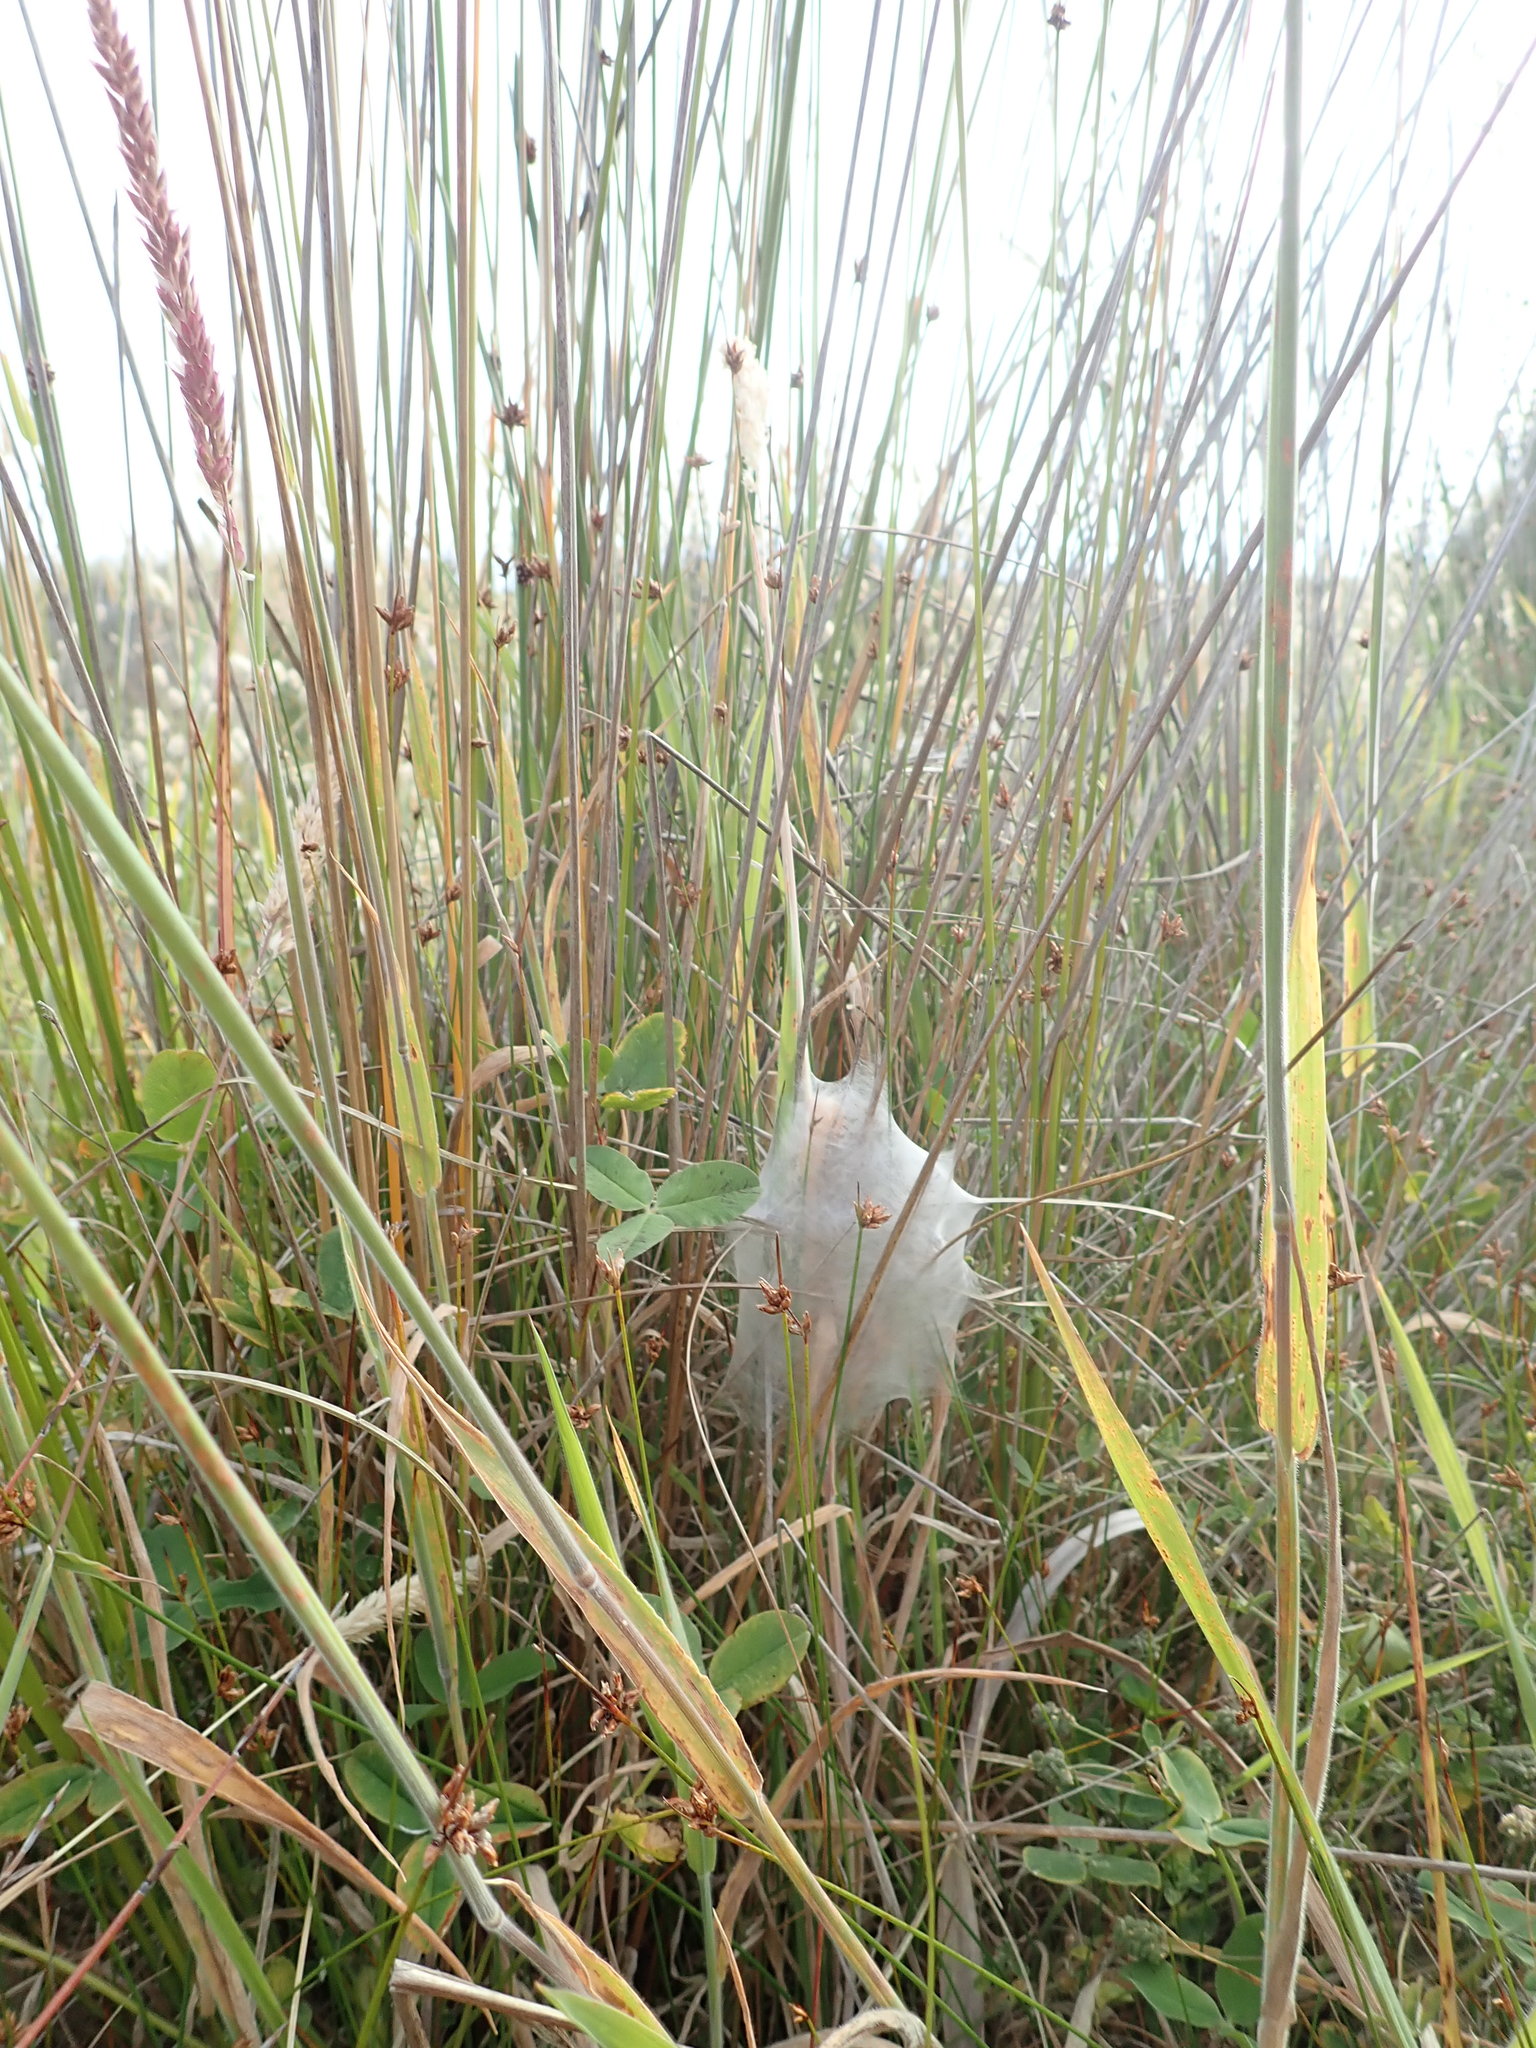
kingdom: Animalia
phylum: Arthropoda
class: Arachnida
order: Araneae
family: Pisauridae
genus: Dolomedes
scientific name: Dolomedes minor
